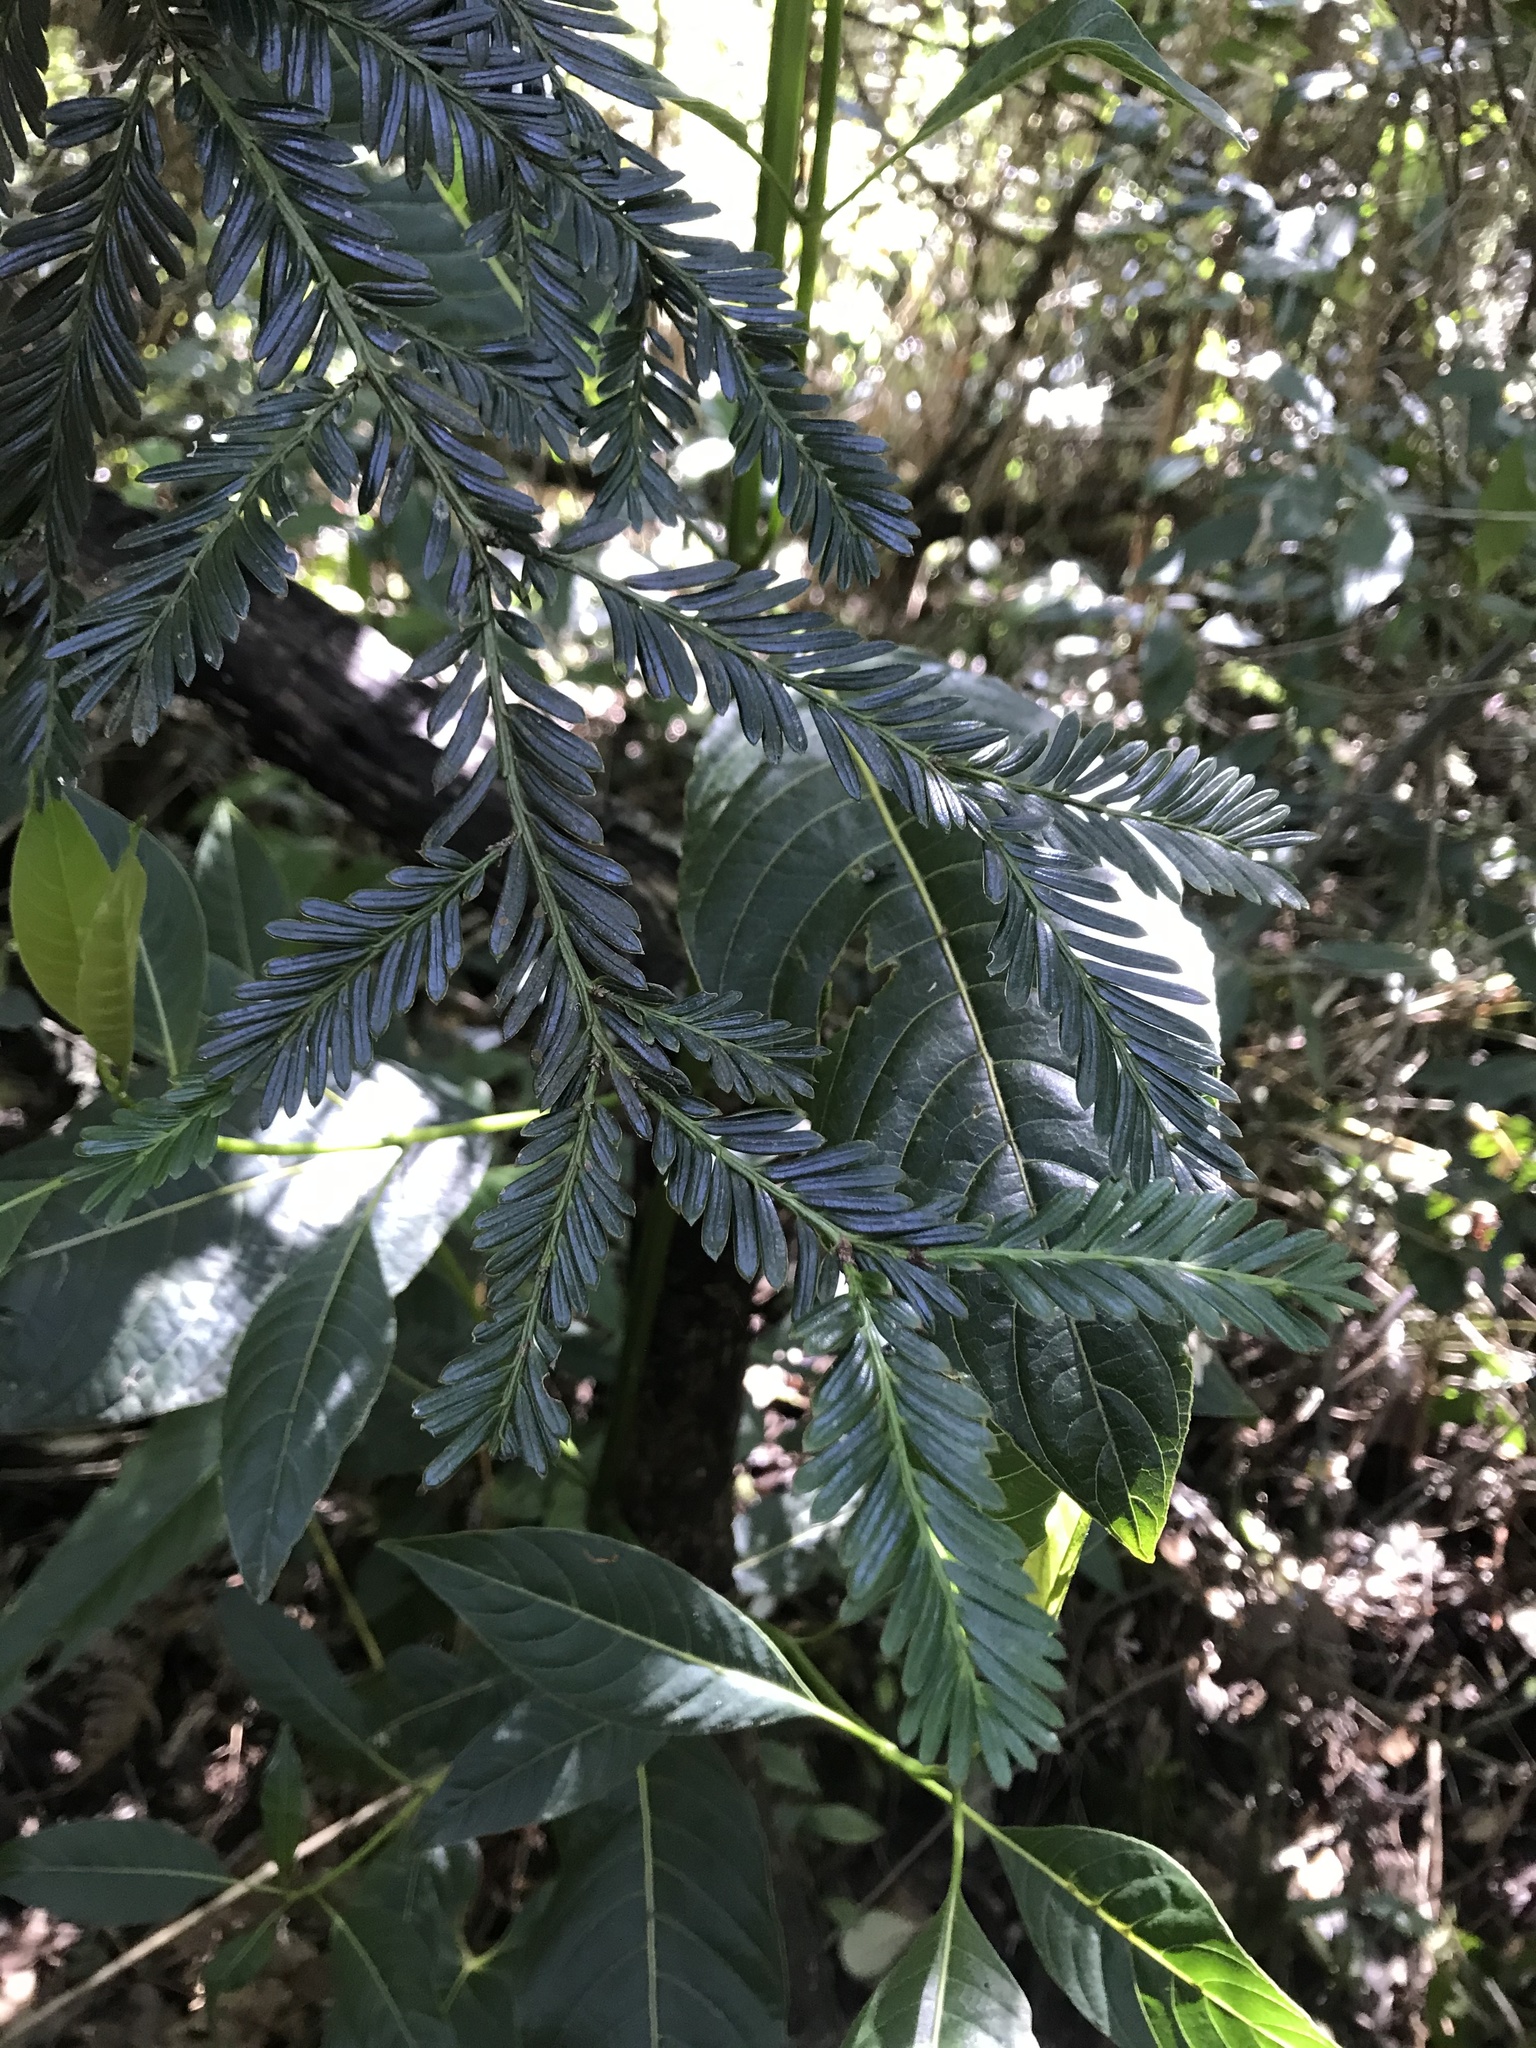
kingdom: Plantae
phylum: Tracheophyta
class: Pinopsida
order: Pinales
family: Podocarpaceae
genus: Prumnopitys
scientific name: Prumnopitys montana
